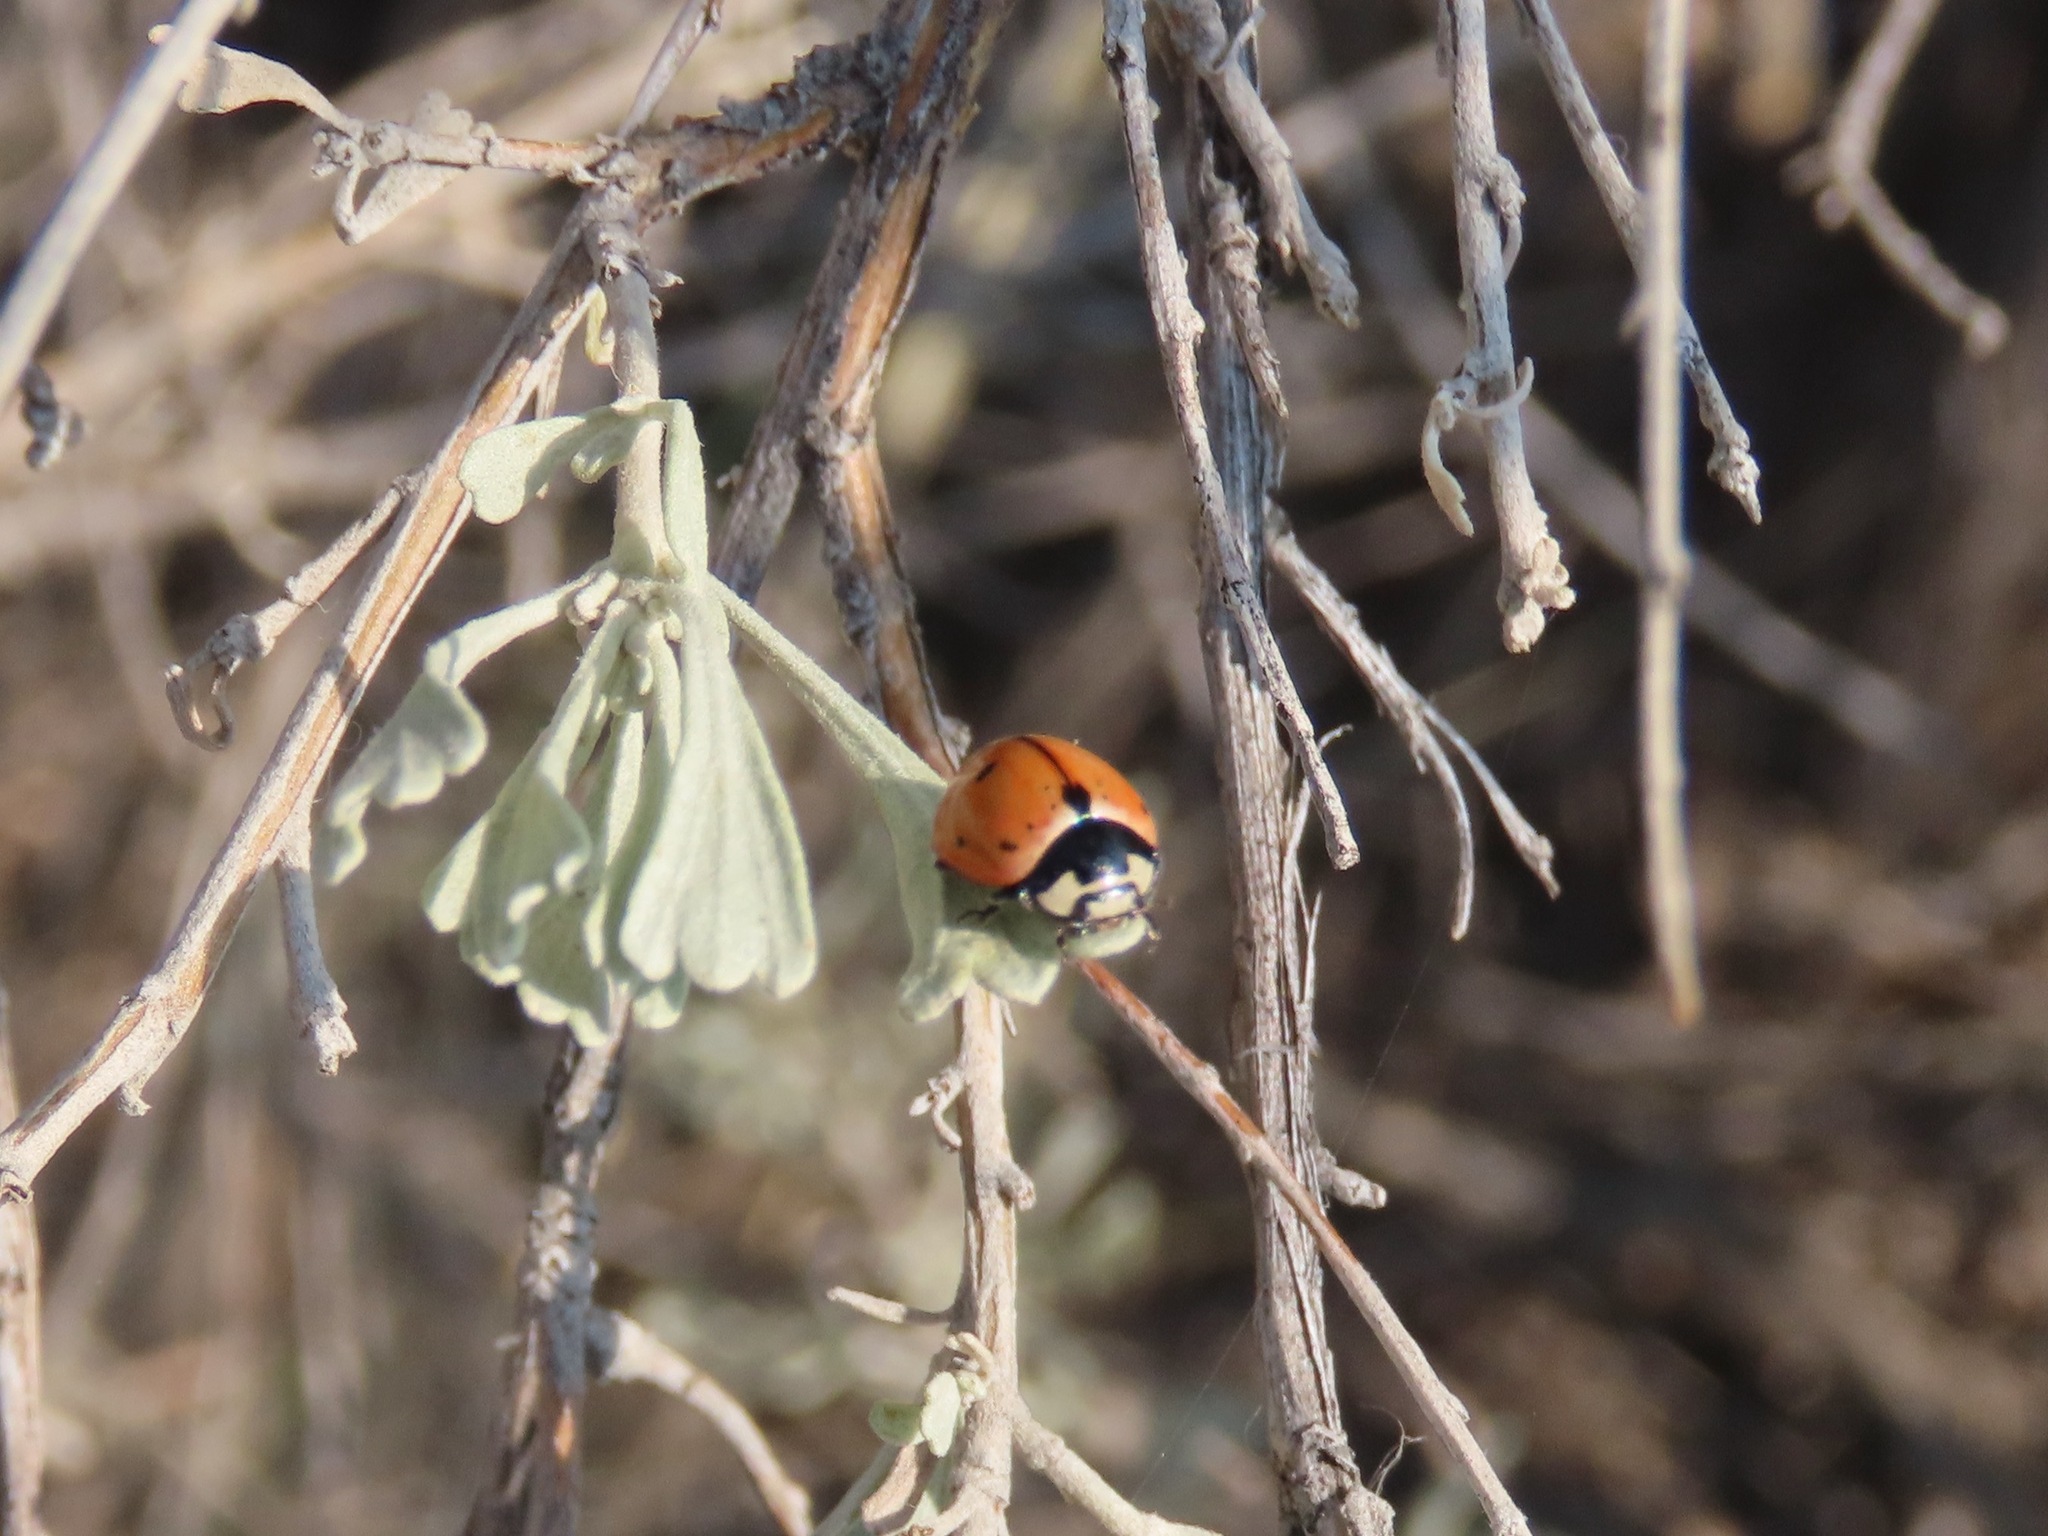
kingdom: Animalia
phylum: Arthropoda
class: Insecta
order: Coleoptera
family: Coccinellidae
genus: Coccinella
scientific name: Coccinella novemnotata
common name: Nine-spotted lady beetle
